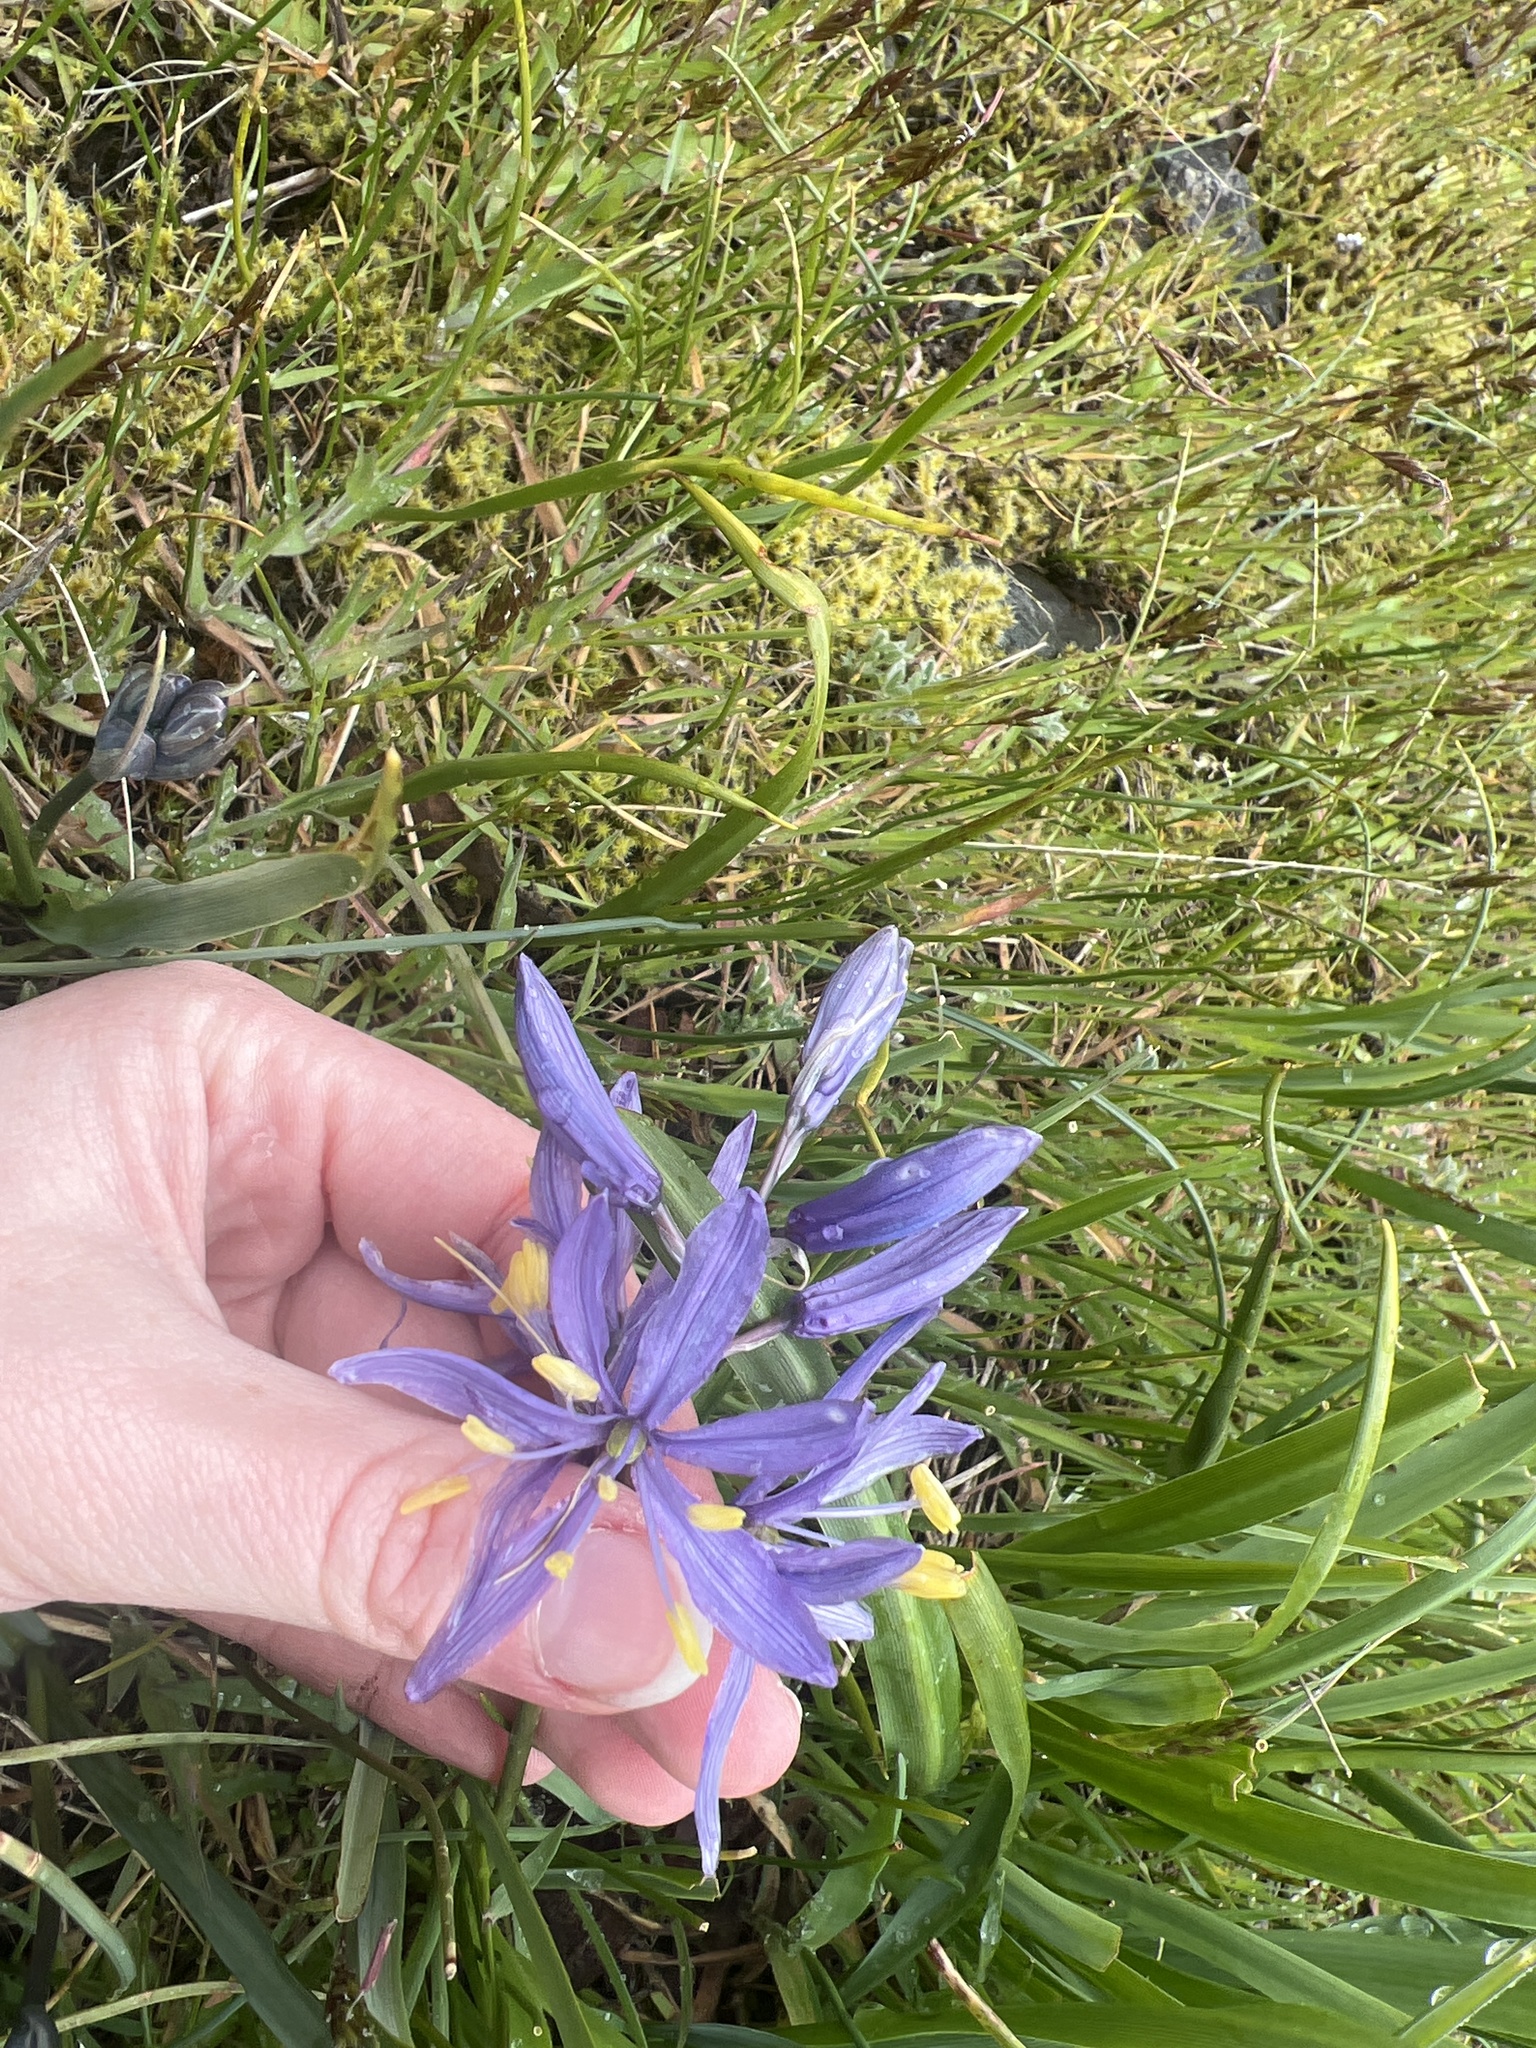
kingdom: Plantae
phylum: Tracheophyta
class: Liliopsida
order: Asparagales
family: Asparagaceae
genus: Camassia
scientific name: Camassia quamash
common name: Common camas
